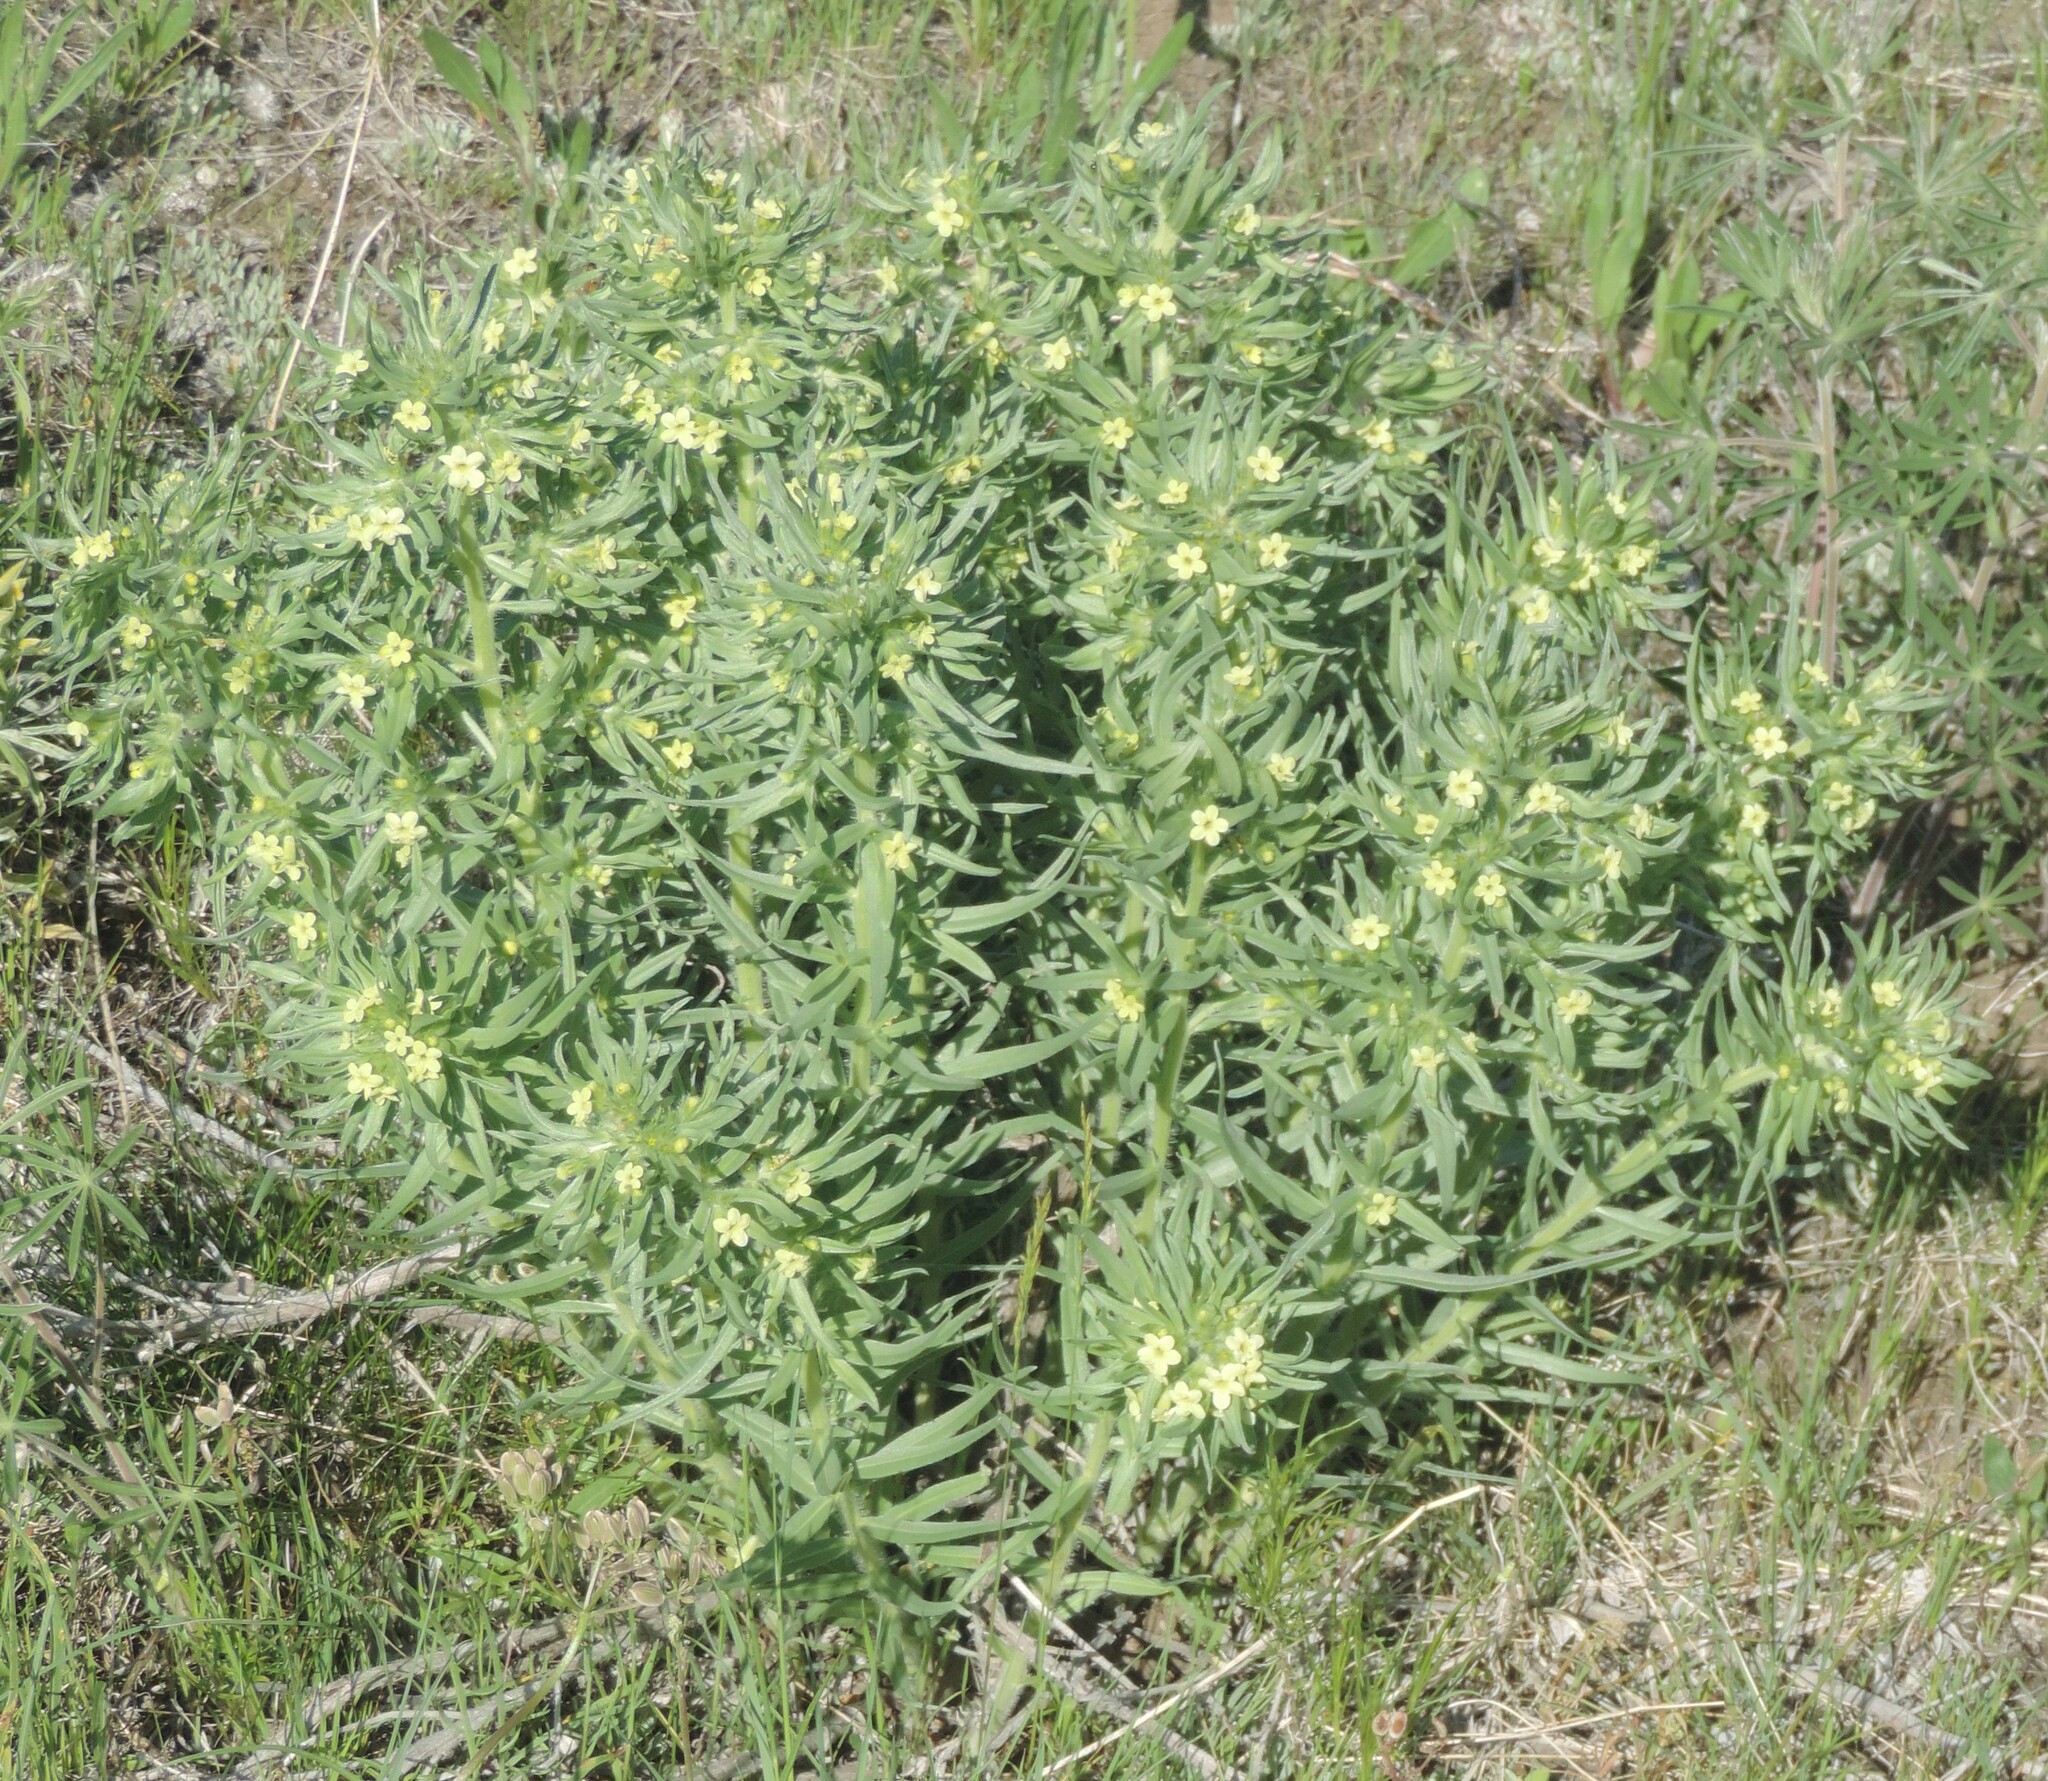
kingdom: Plantae
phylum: Tracheophyta
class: Magnoliopsida
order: Boraginales
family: Boraginaceae
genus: Lithospermum
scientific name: Lithospermum ruderale
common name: Western gromwell
